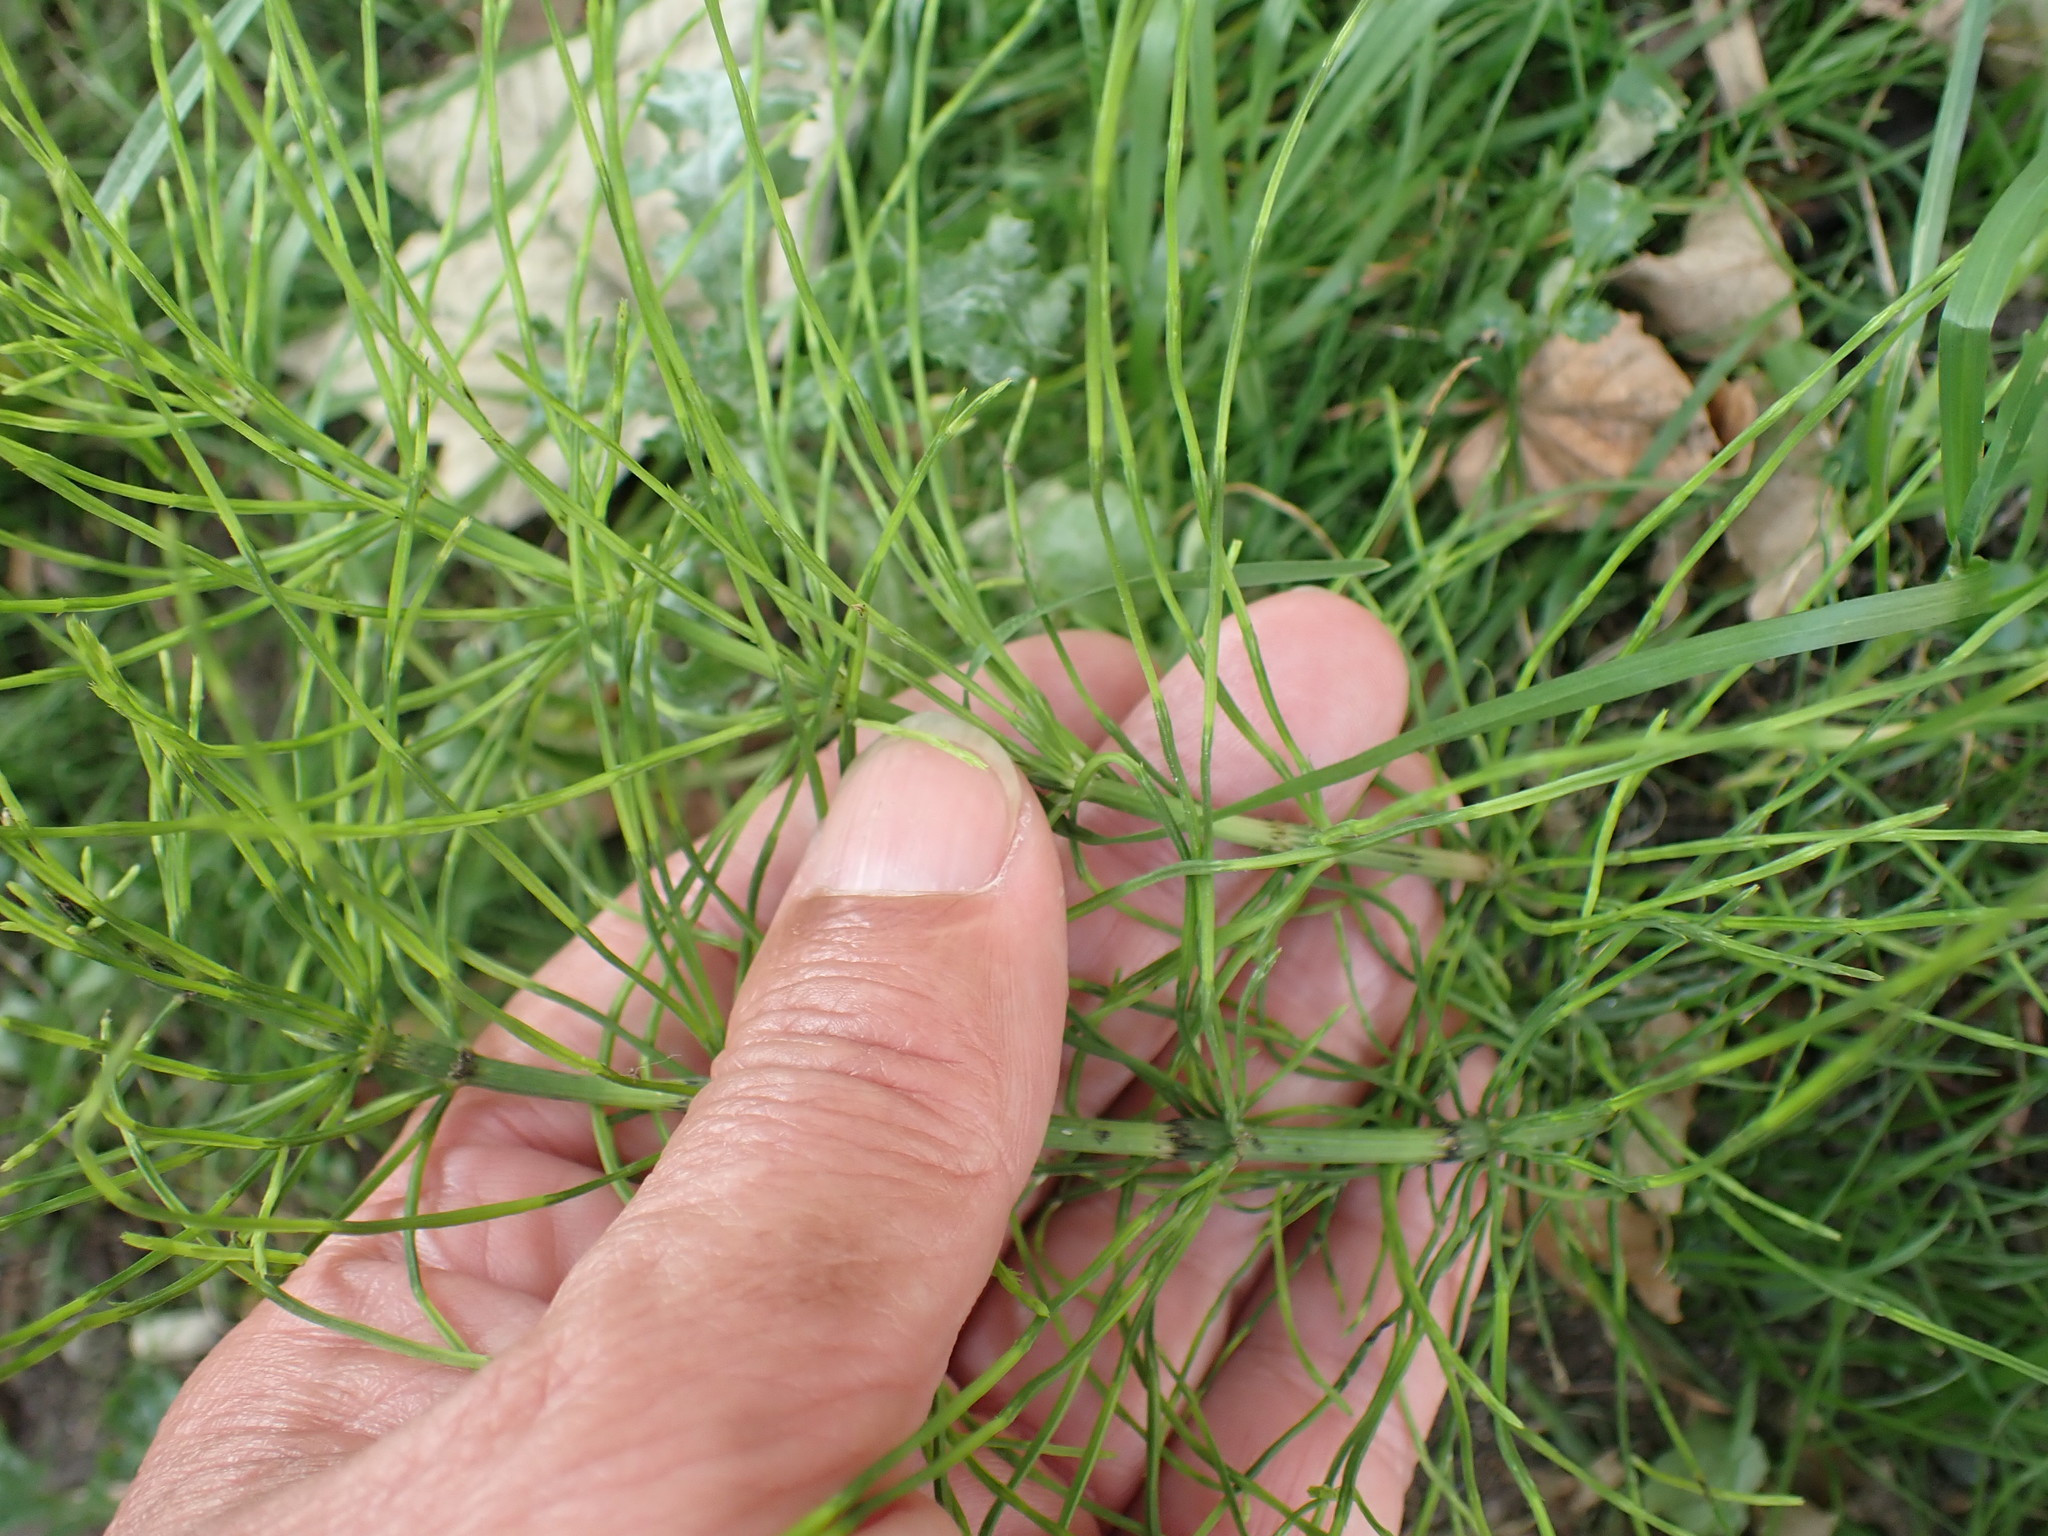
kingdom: Plantae
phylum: Tracheophyta
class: Polypodiopsida
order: Equisetales
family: Equisetaceae
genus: Equisetum
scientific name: Equisetum arvense
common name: Field horsetail
